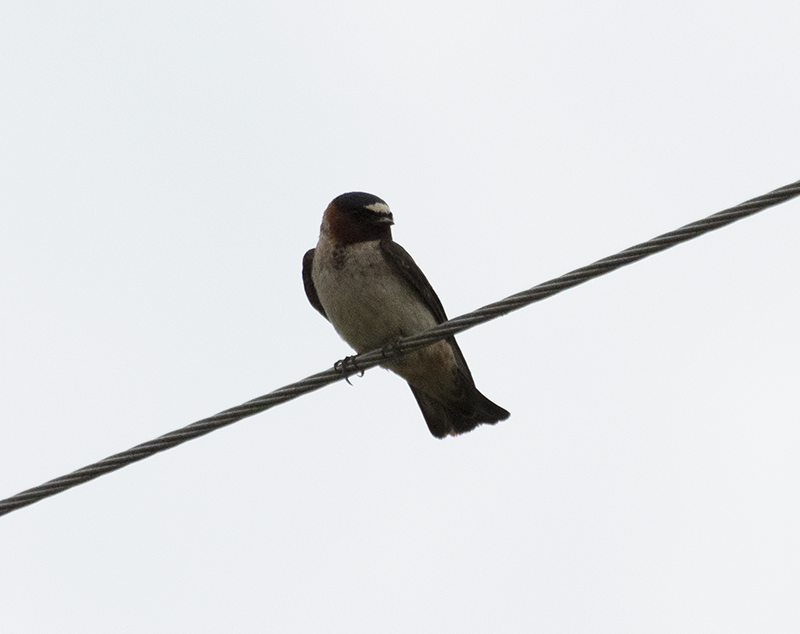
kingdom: Animalia
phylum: Chordata
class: Aves
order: Passeriformes
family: Hirundinidae
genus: Petrochelidon
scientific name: Petrochelidon pyrrhonota
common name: American cliff swallow
